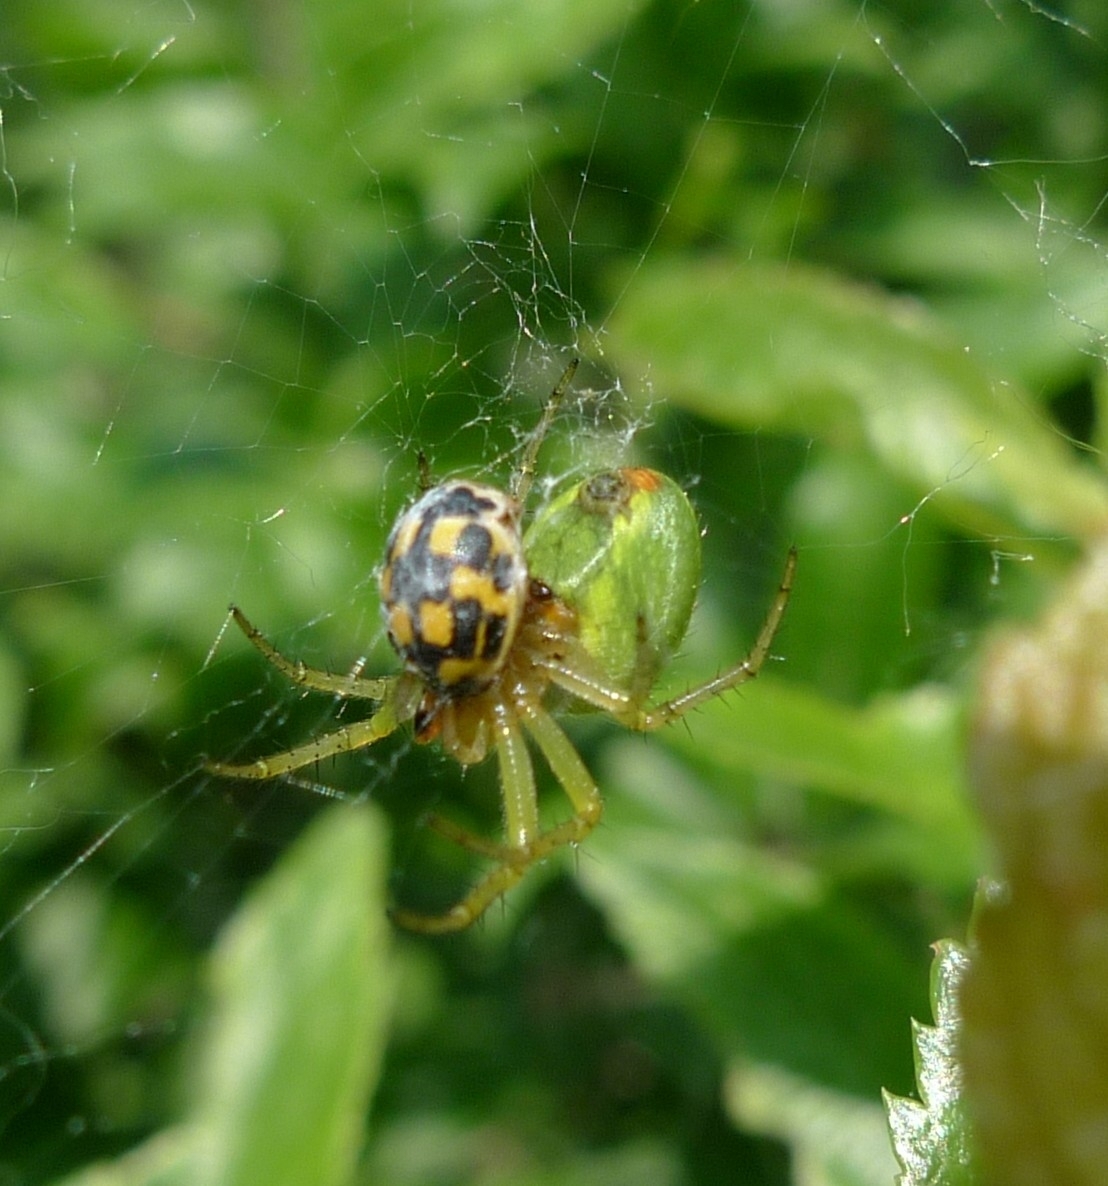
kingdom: Animalia
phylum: Arthropoda
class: Insecta
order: Coleoptera
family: Coccinellidae
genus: Propylaea
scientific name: Propylaea quatuordecimpunctata
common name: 14-spotted ladybird beetle
